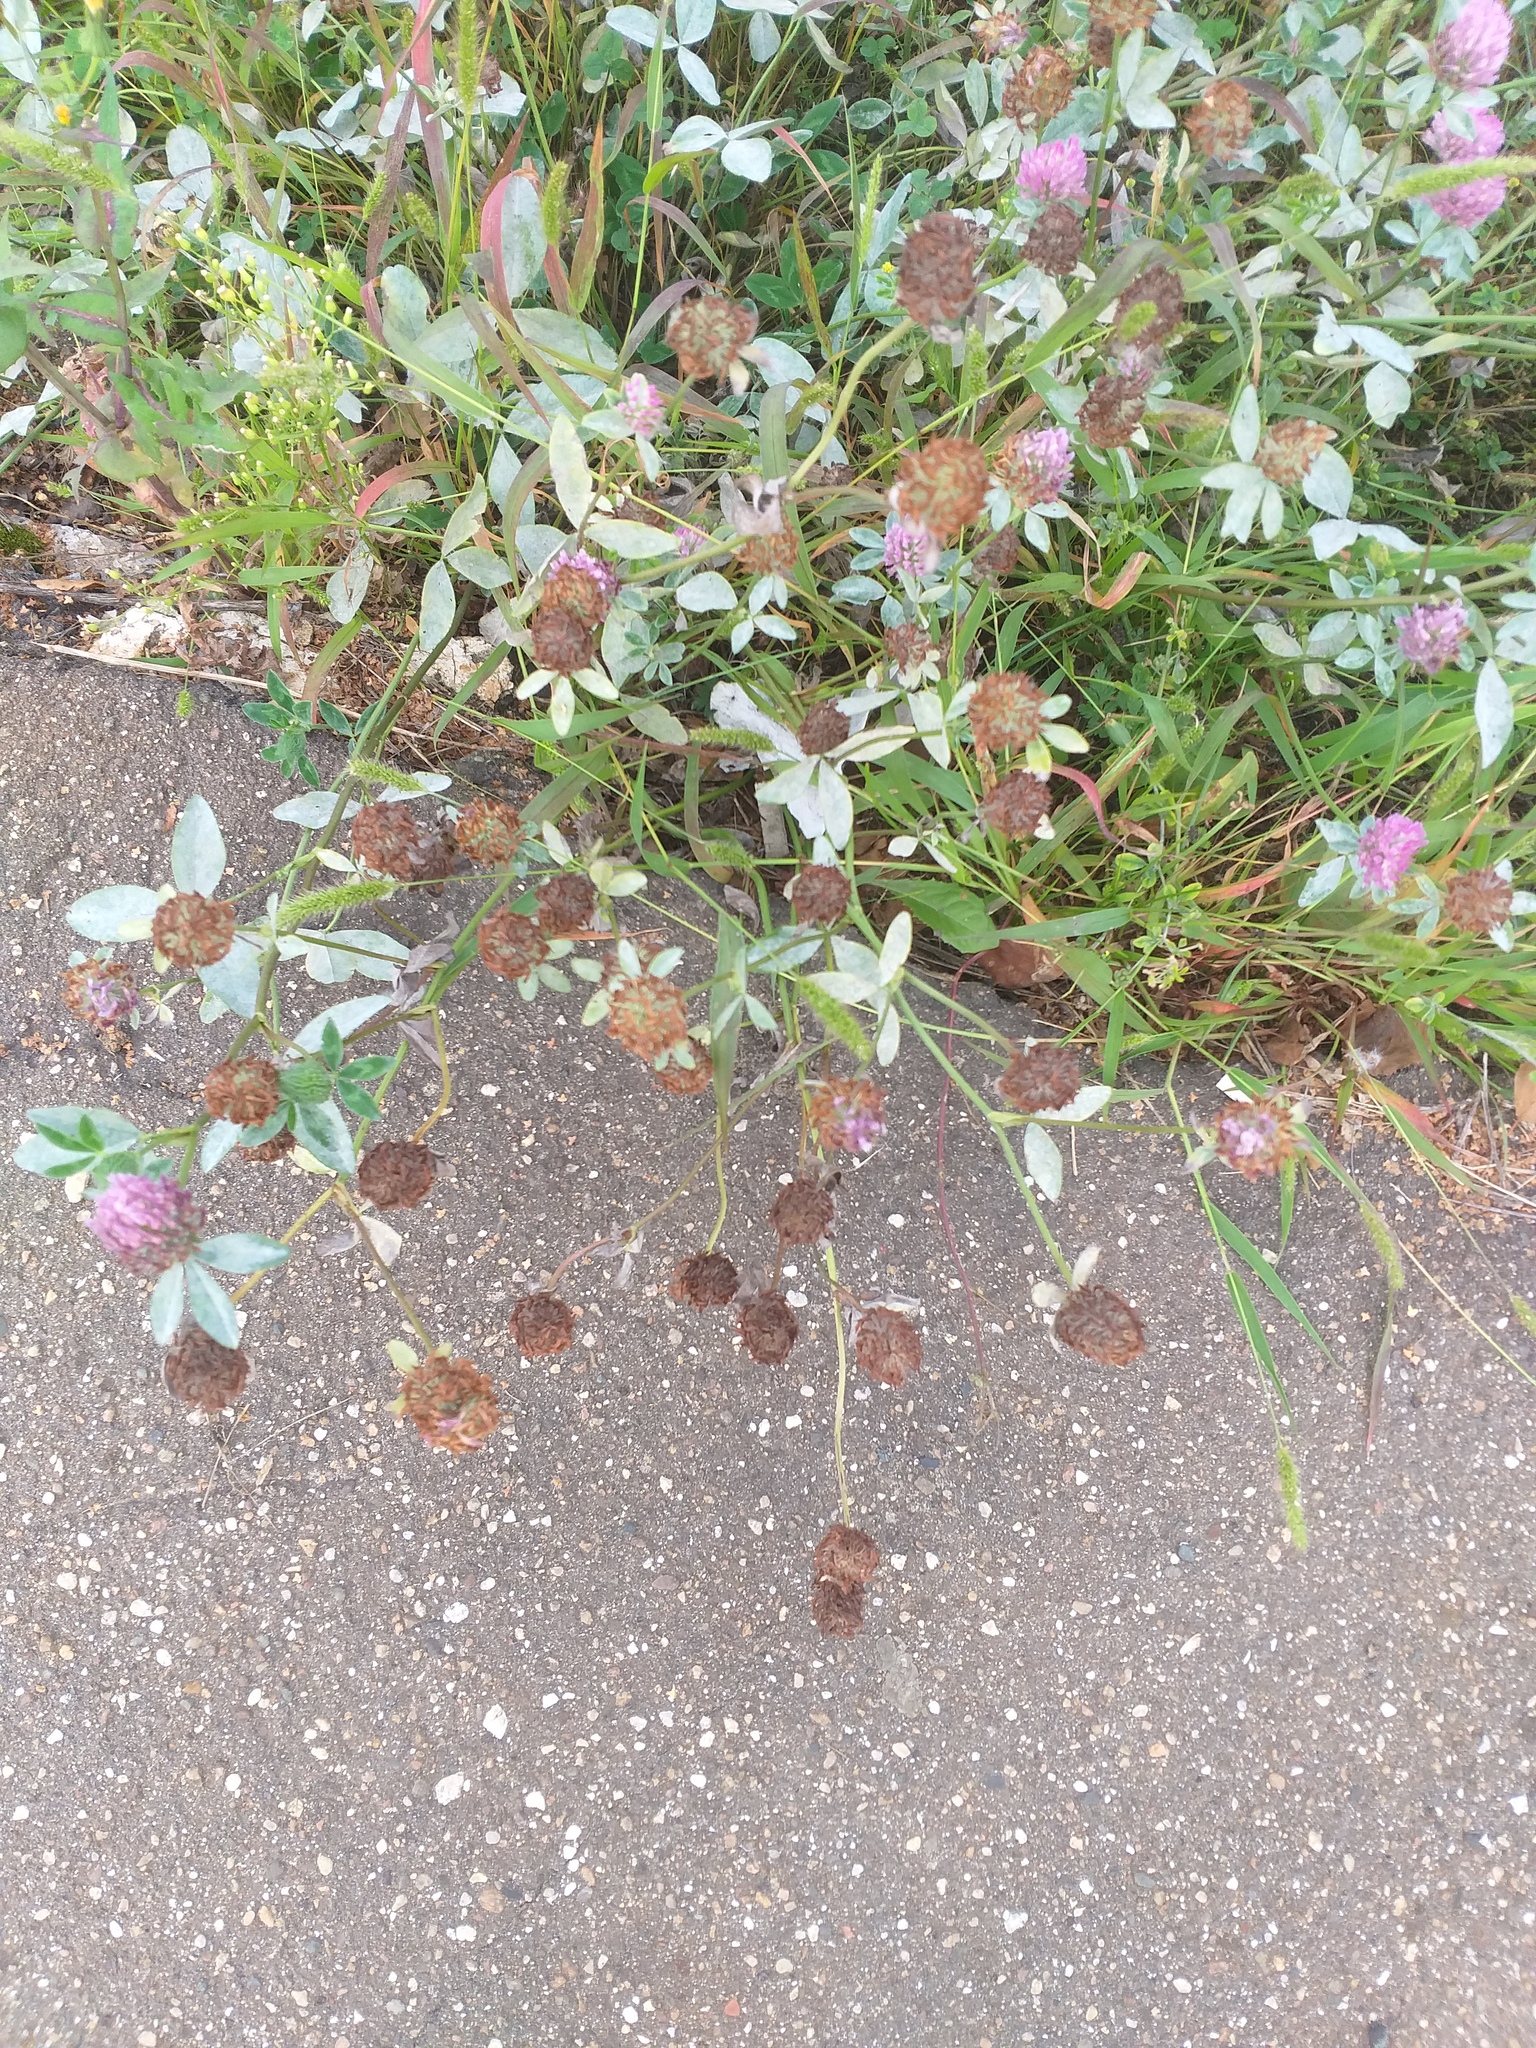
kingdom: Plantae
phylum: Tracheophyta
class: Magnoliopsida
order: Fabales
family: Fabaceae
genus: Trifolium
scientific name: Trifolium pratense
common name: Red clover
